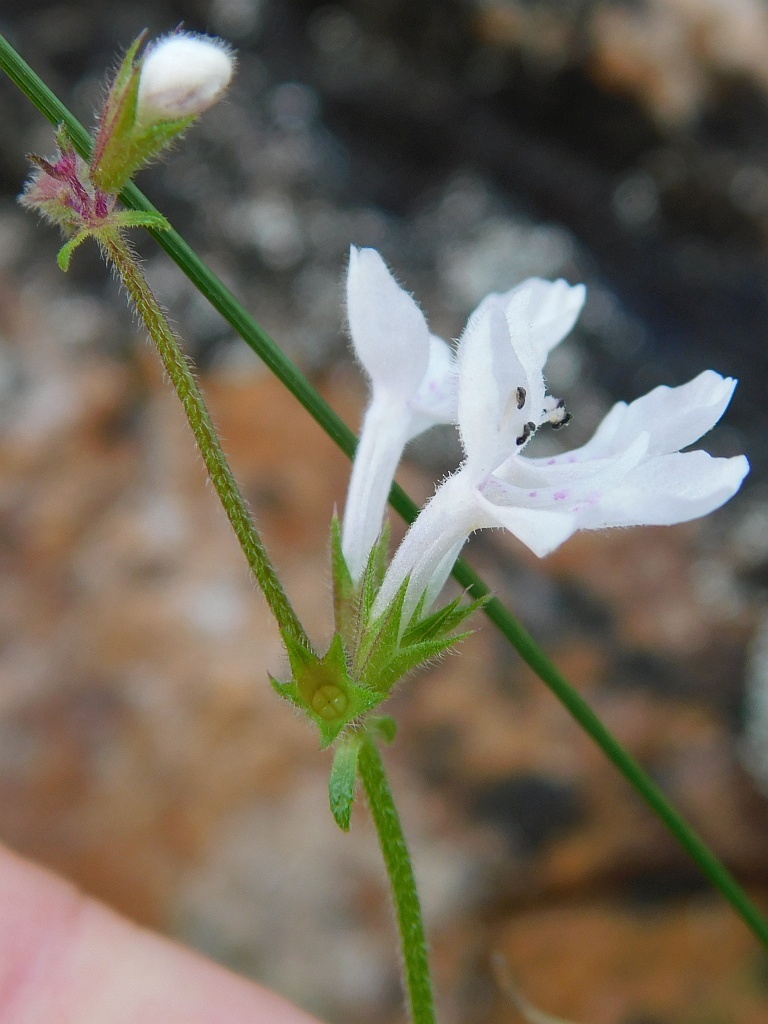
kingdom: Plantae
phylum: Tracheophyta
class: Magnoliopsida
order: Lamiales
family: Lamiaceae
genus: Stachys
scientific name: Stachys aethiopica
